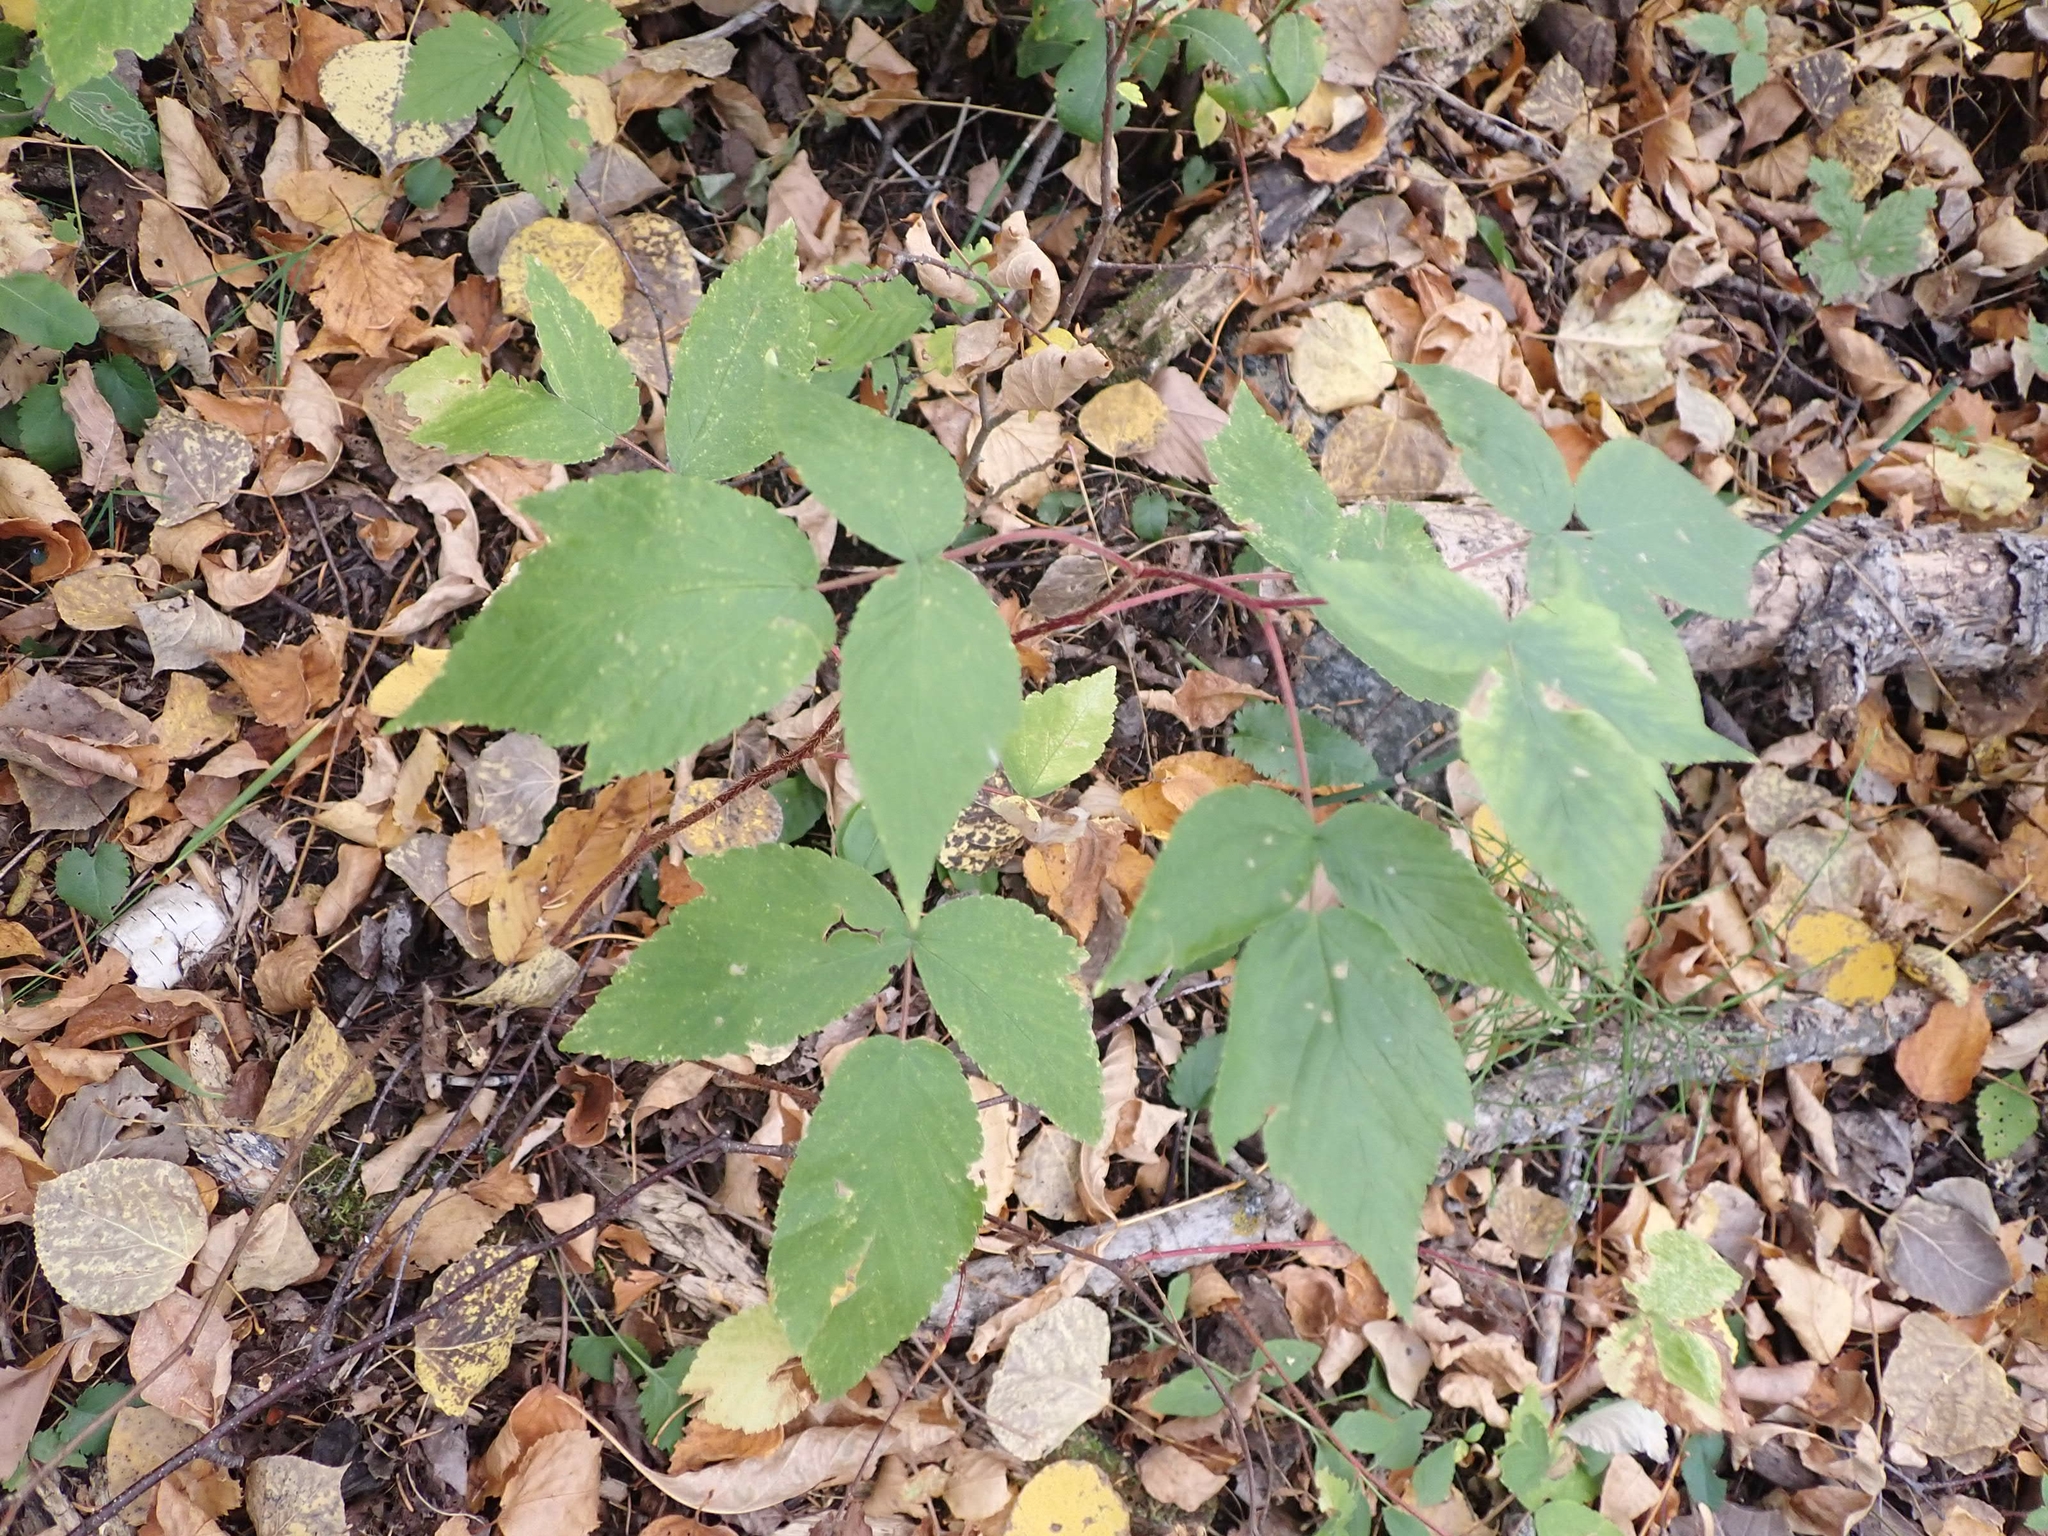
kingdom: Plantae
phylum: Tracheophyta
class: Magnoliopsida
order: Rosales
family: Rosaceae
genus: Rubus
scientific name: Rubus idaeus
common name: Raspberry
